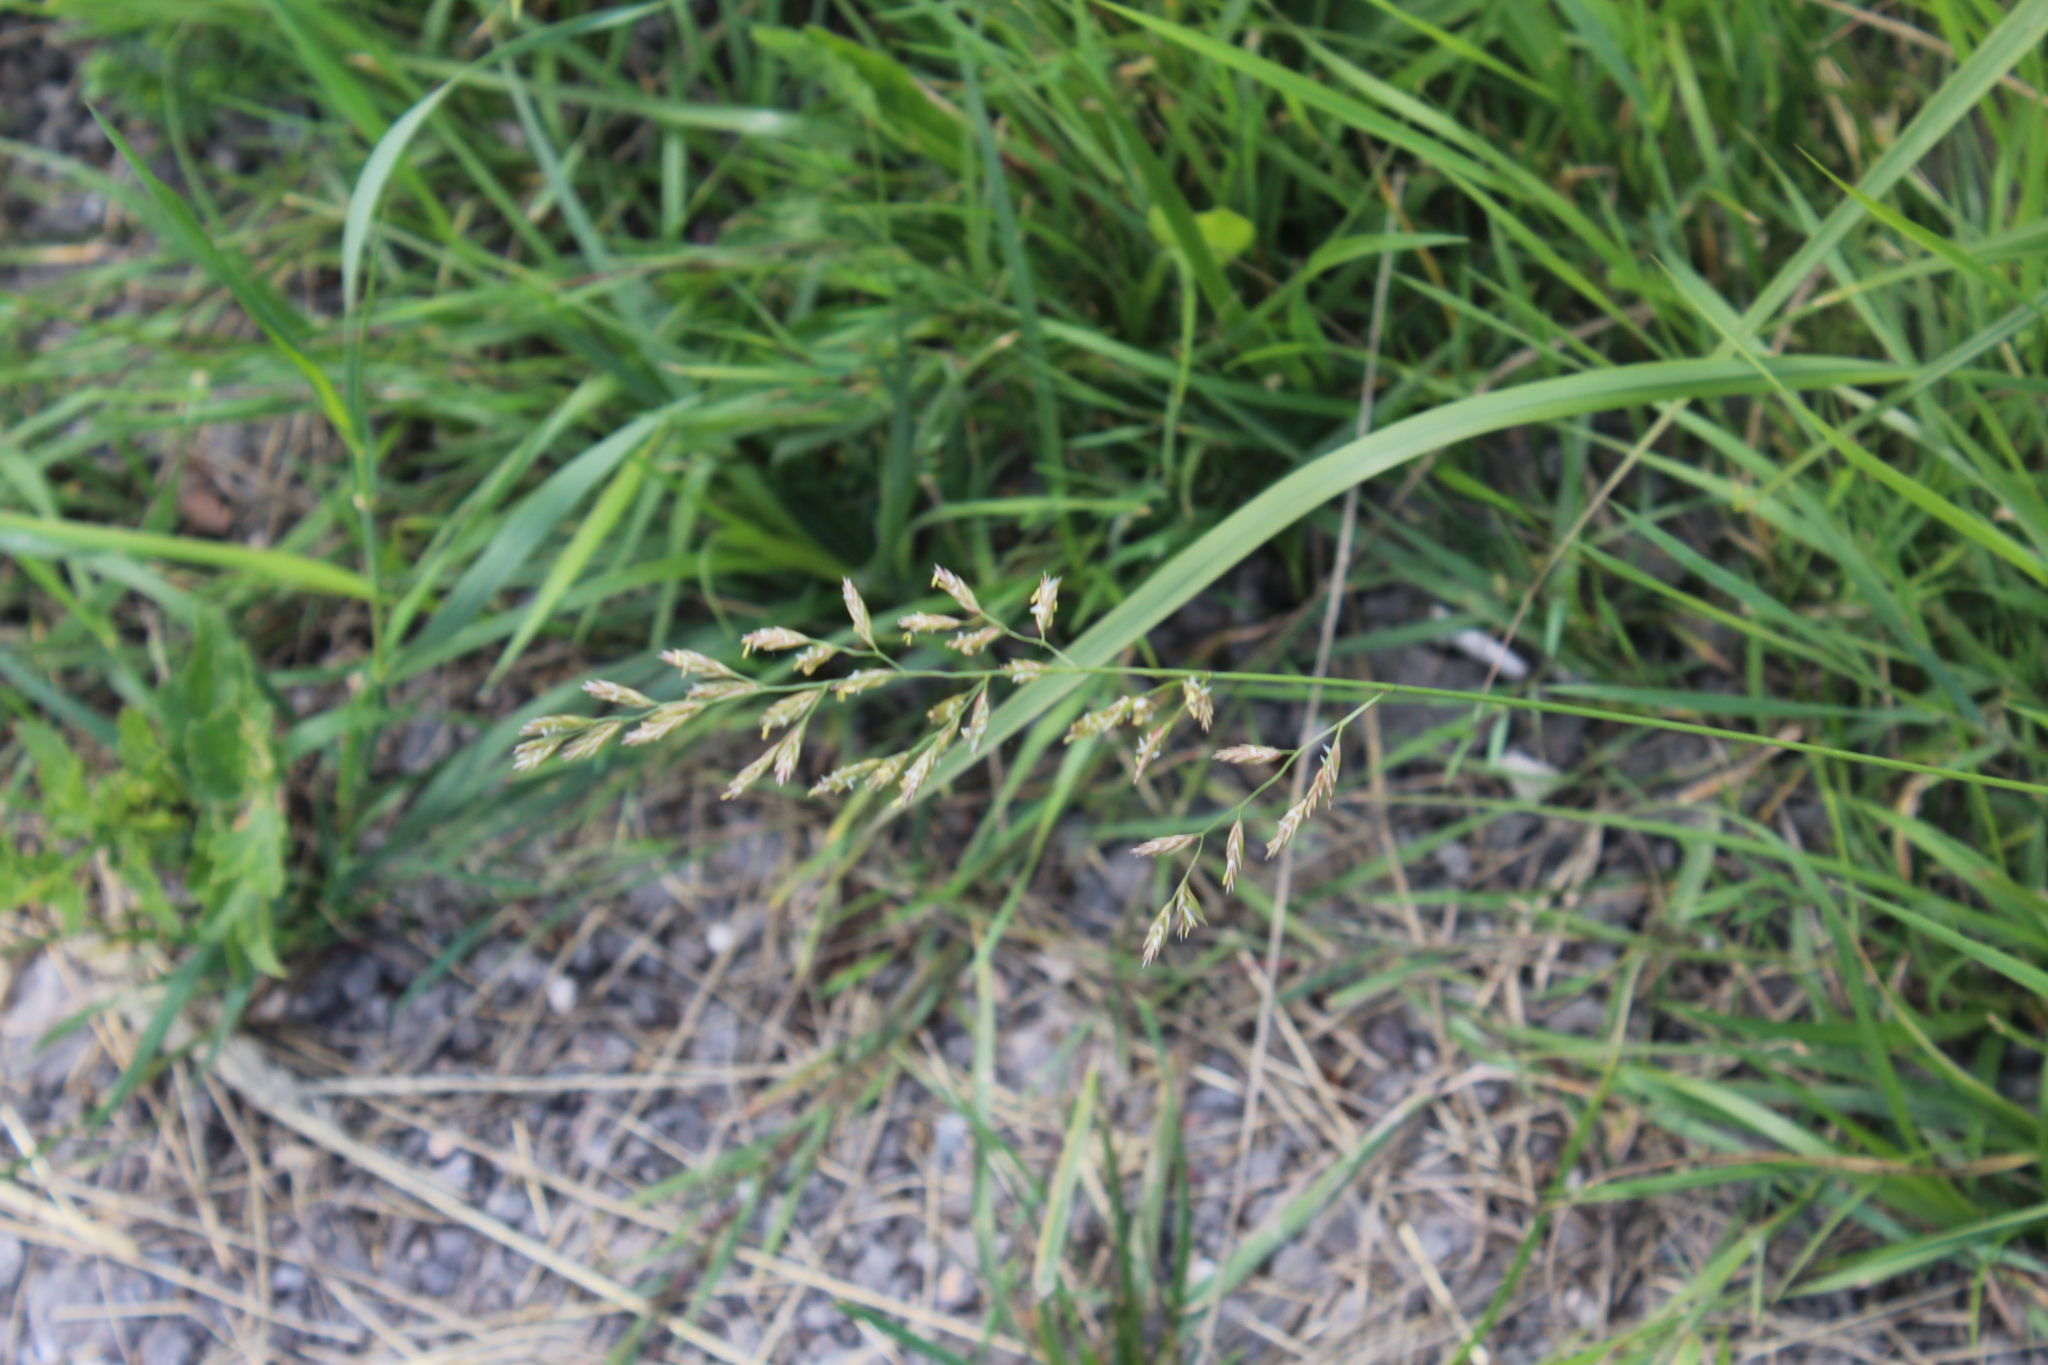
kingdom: Plantae
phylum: Tracheophyta
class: Liliopsida
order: Poales
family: Poaceae
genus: Lolium
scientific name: Lolium pratense
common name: Dover grass
